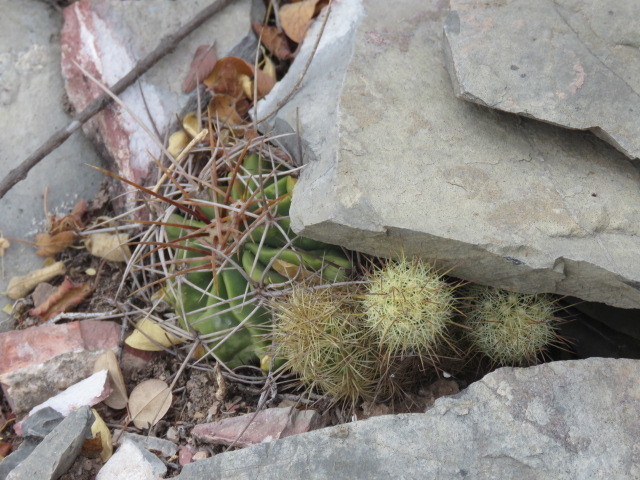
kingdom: Plantae
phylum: Tracheophyta
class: Magnoliopsida
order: Caryophyllales
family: Cactaceae
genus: Mammillaria
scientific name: Mammillaria elongata
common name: Golden star cactus
